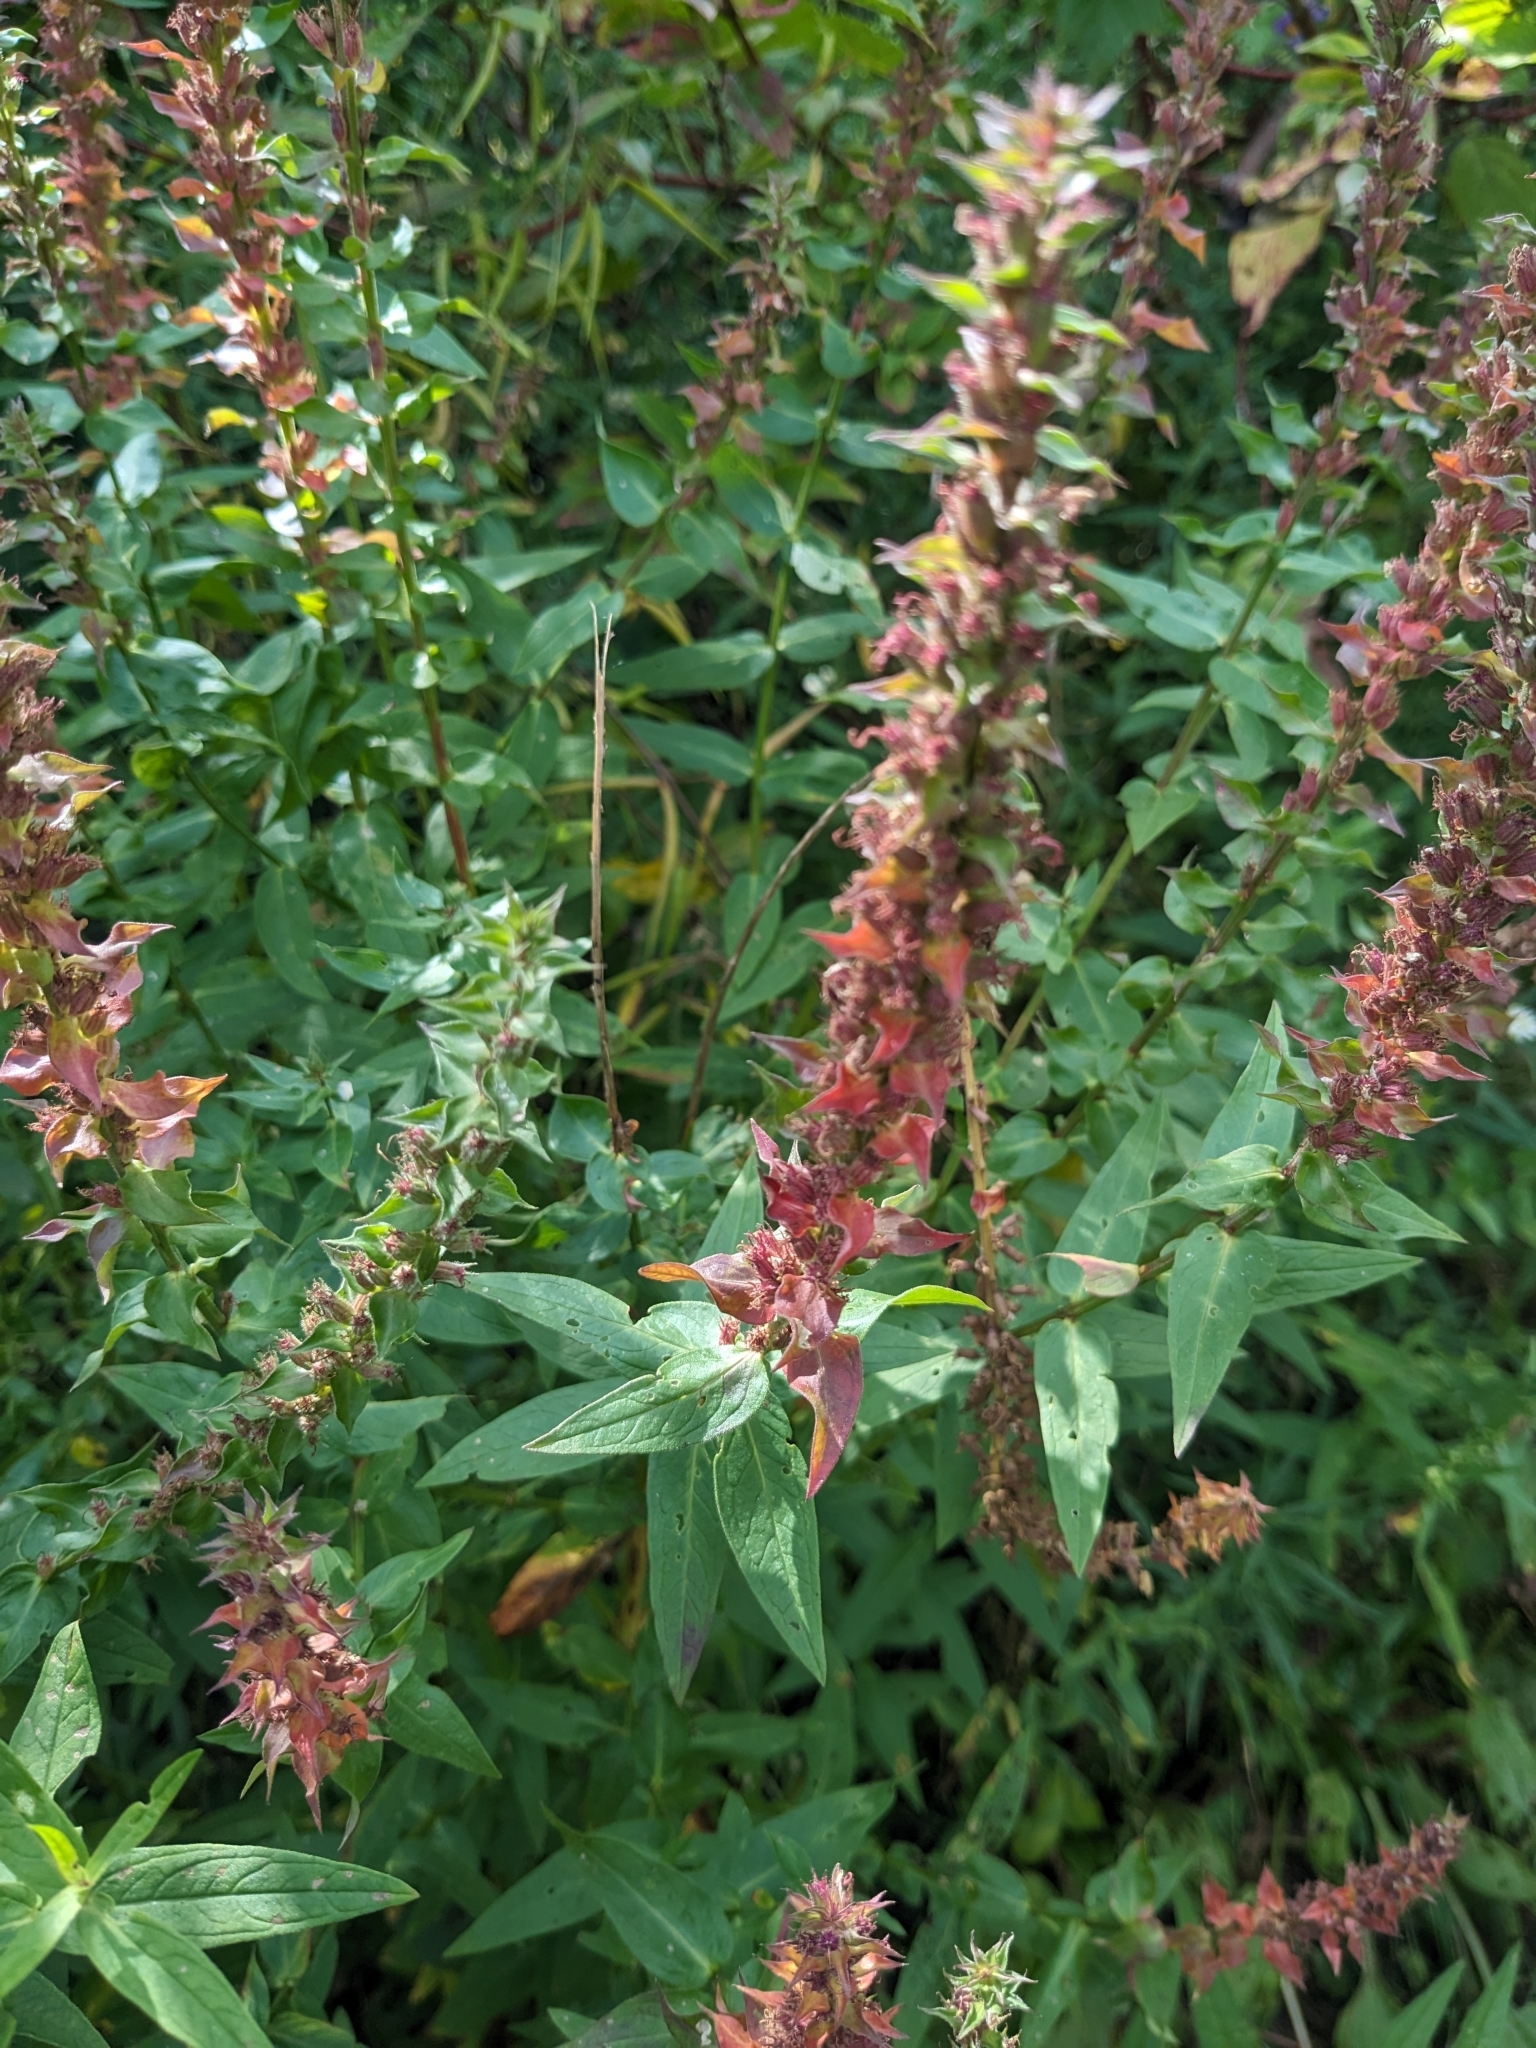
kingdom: Plantae
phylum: Tracheophyta
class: Magnoliopsida
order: Myrtales
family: Lythraceae
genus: Lythrum
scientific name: Lythrum salicaria
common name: Purple loosestrife
